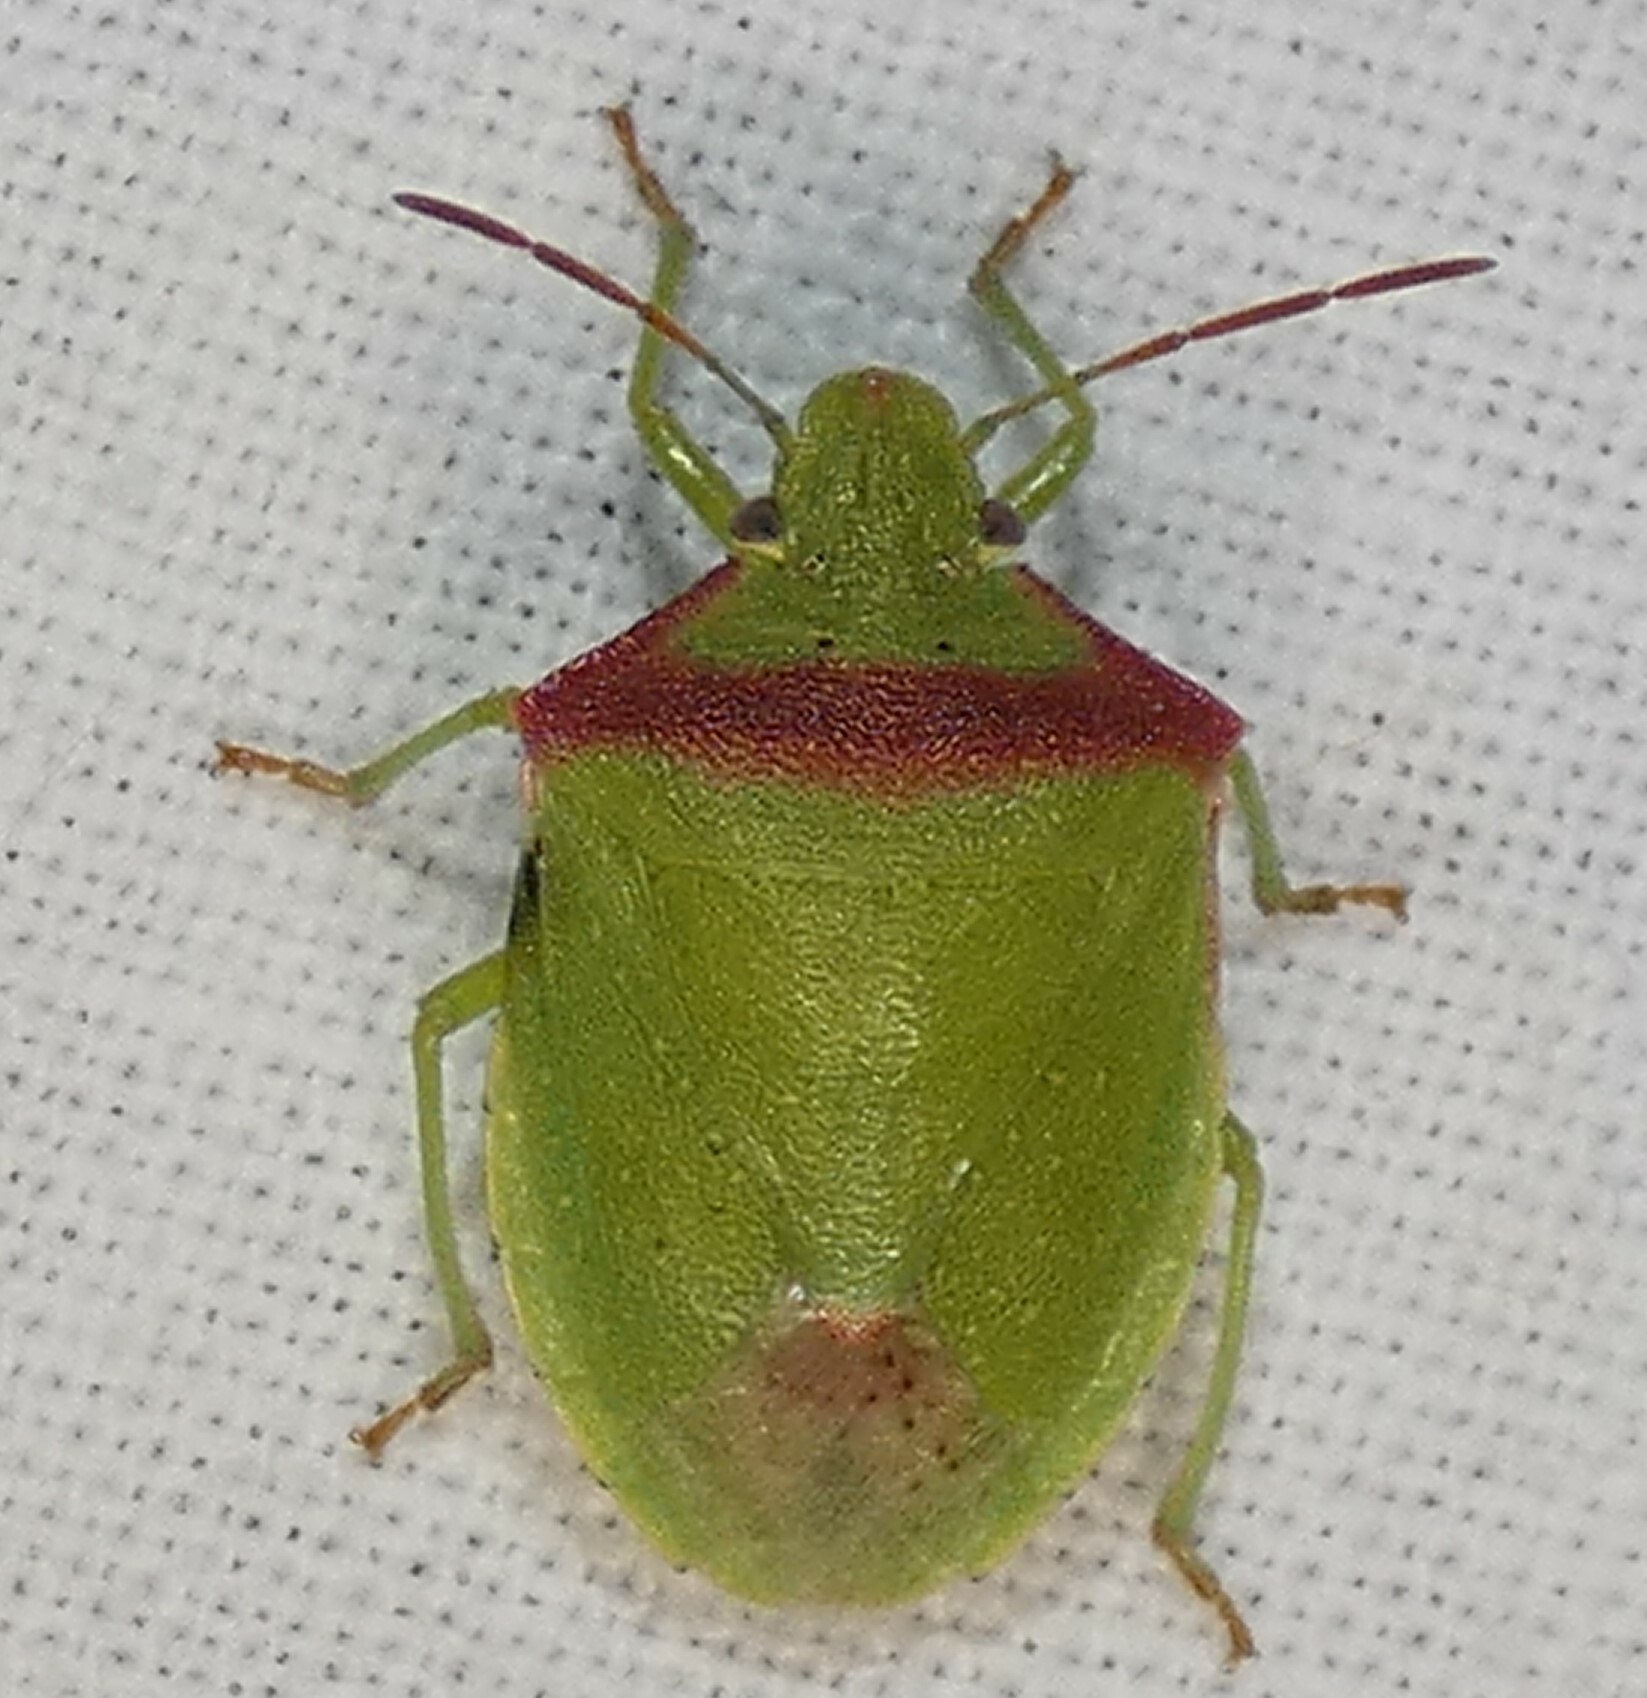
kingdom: Animalia
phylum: Arthropoda
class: Insecta
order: Hemiptera
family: Pentatomidae
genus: Thyanta
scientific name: Thyanta accerra
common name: Stink bug
